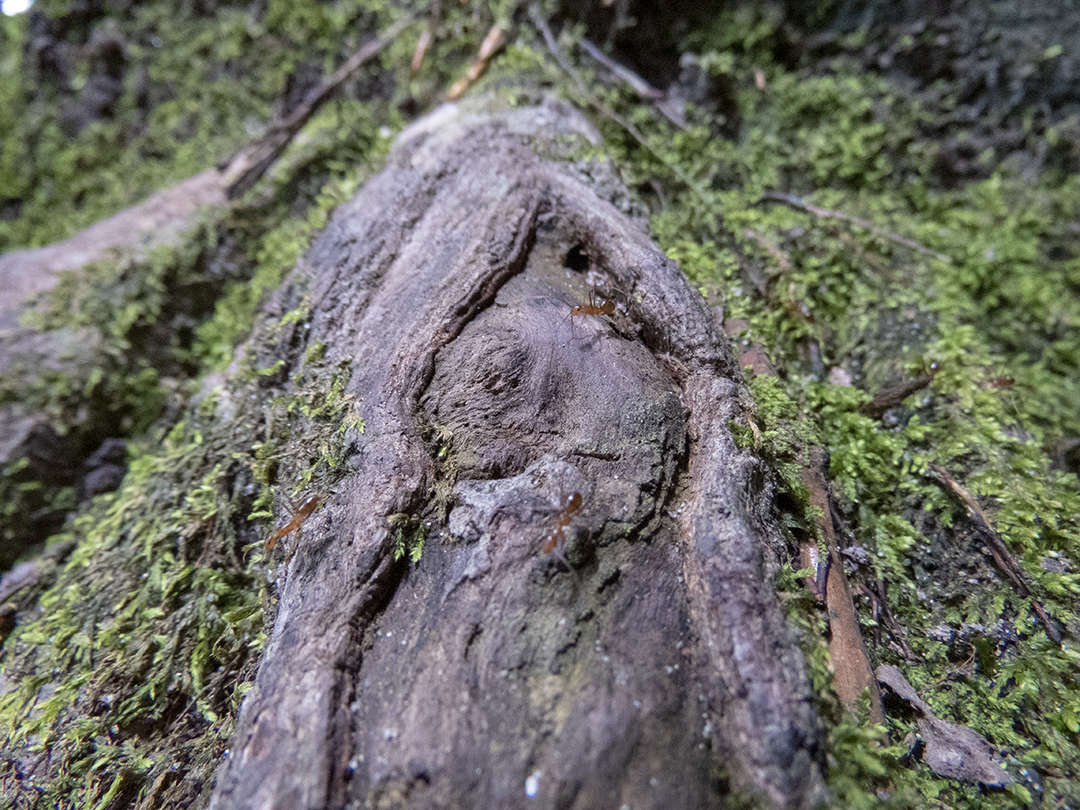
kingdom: Animalia
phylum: Arthropoda
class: Insecta
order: Hymenoptera
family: Formicidae
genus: Anoplolepis
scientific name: Anoplolepis gracilipes
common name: Ant
